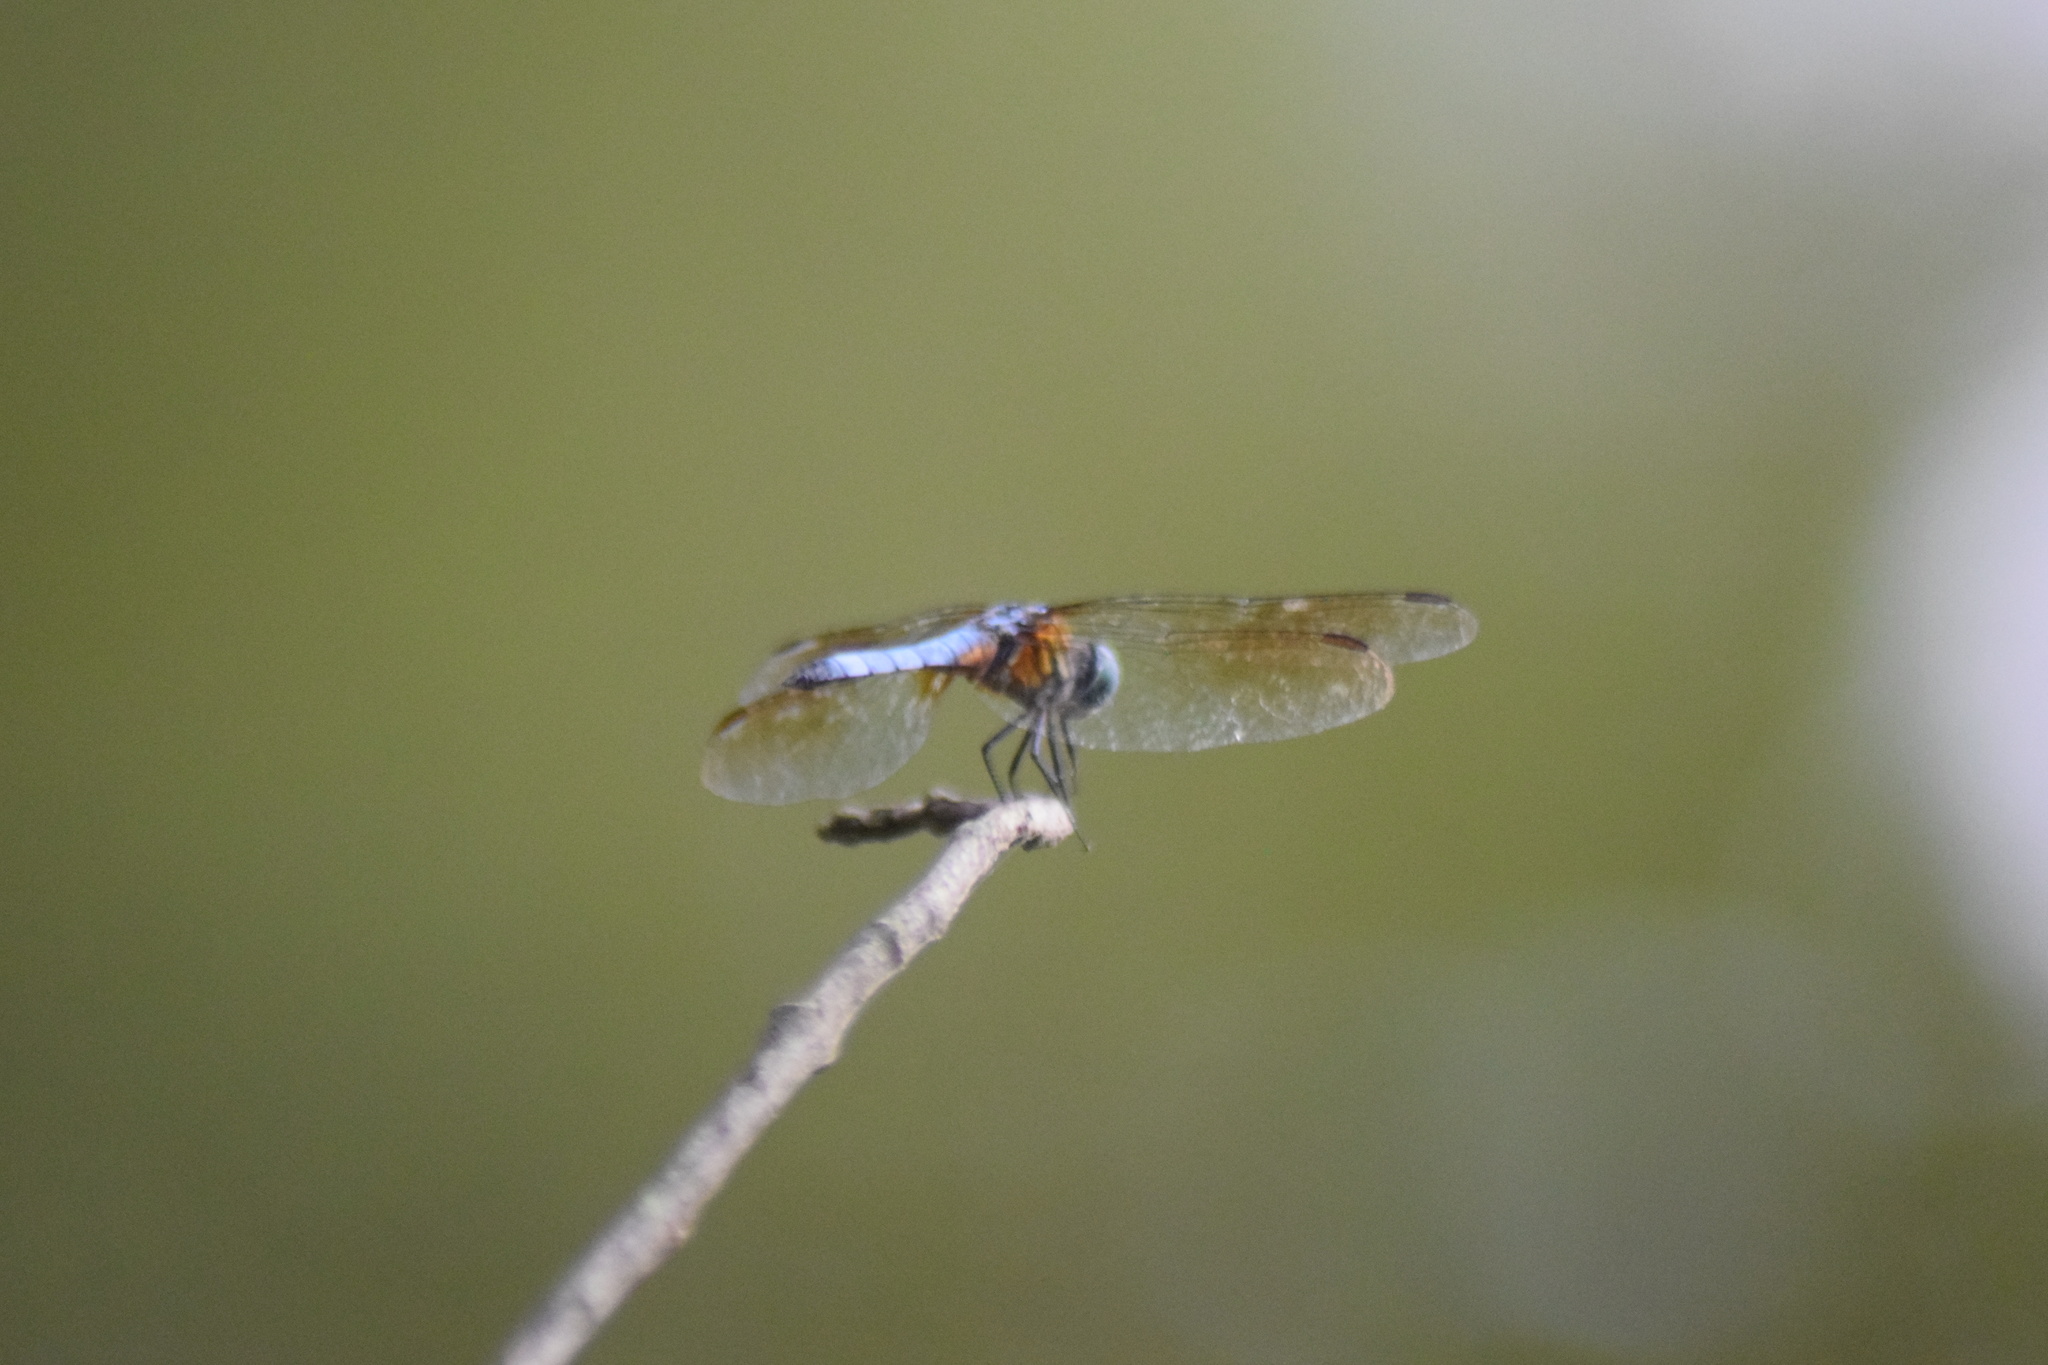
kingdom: Animalia
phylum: Arthropoda
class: Insecta
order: Odonata
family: Libellulidae
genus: Pachydiplax
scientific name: Pachydiplax longipennis
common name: Blue dasher
